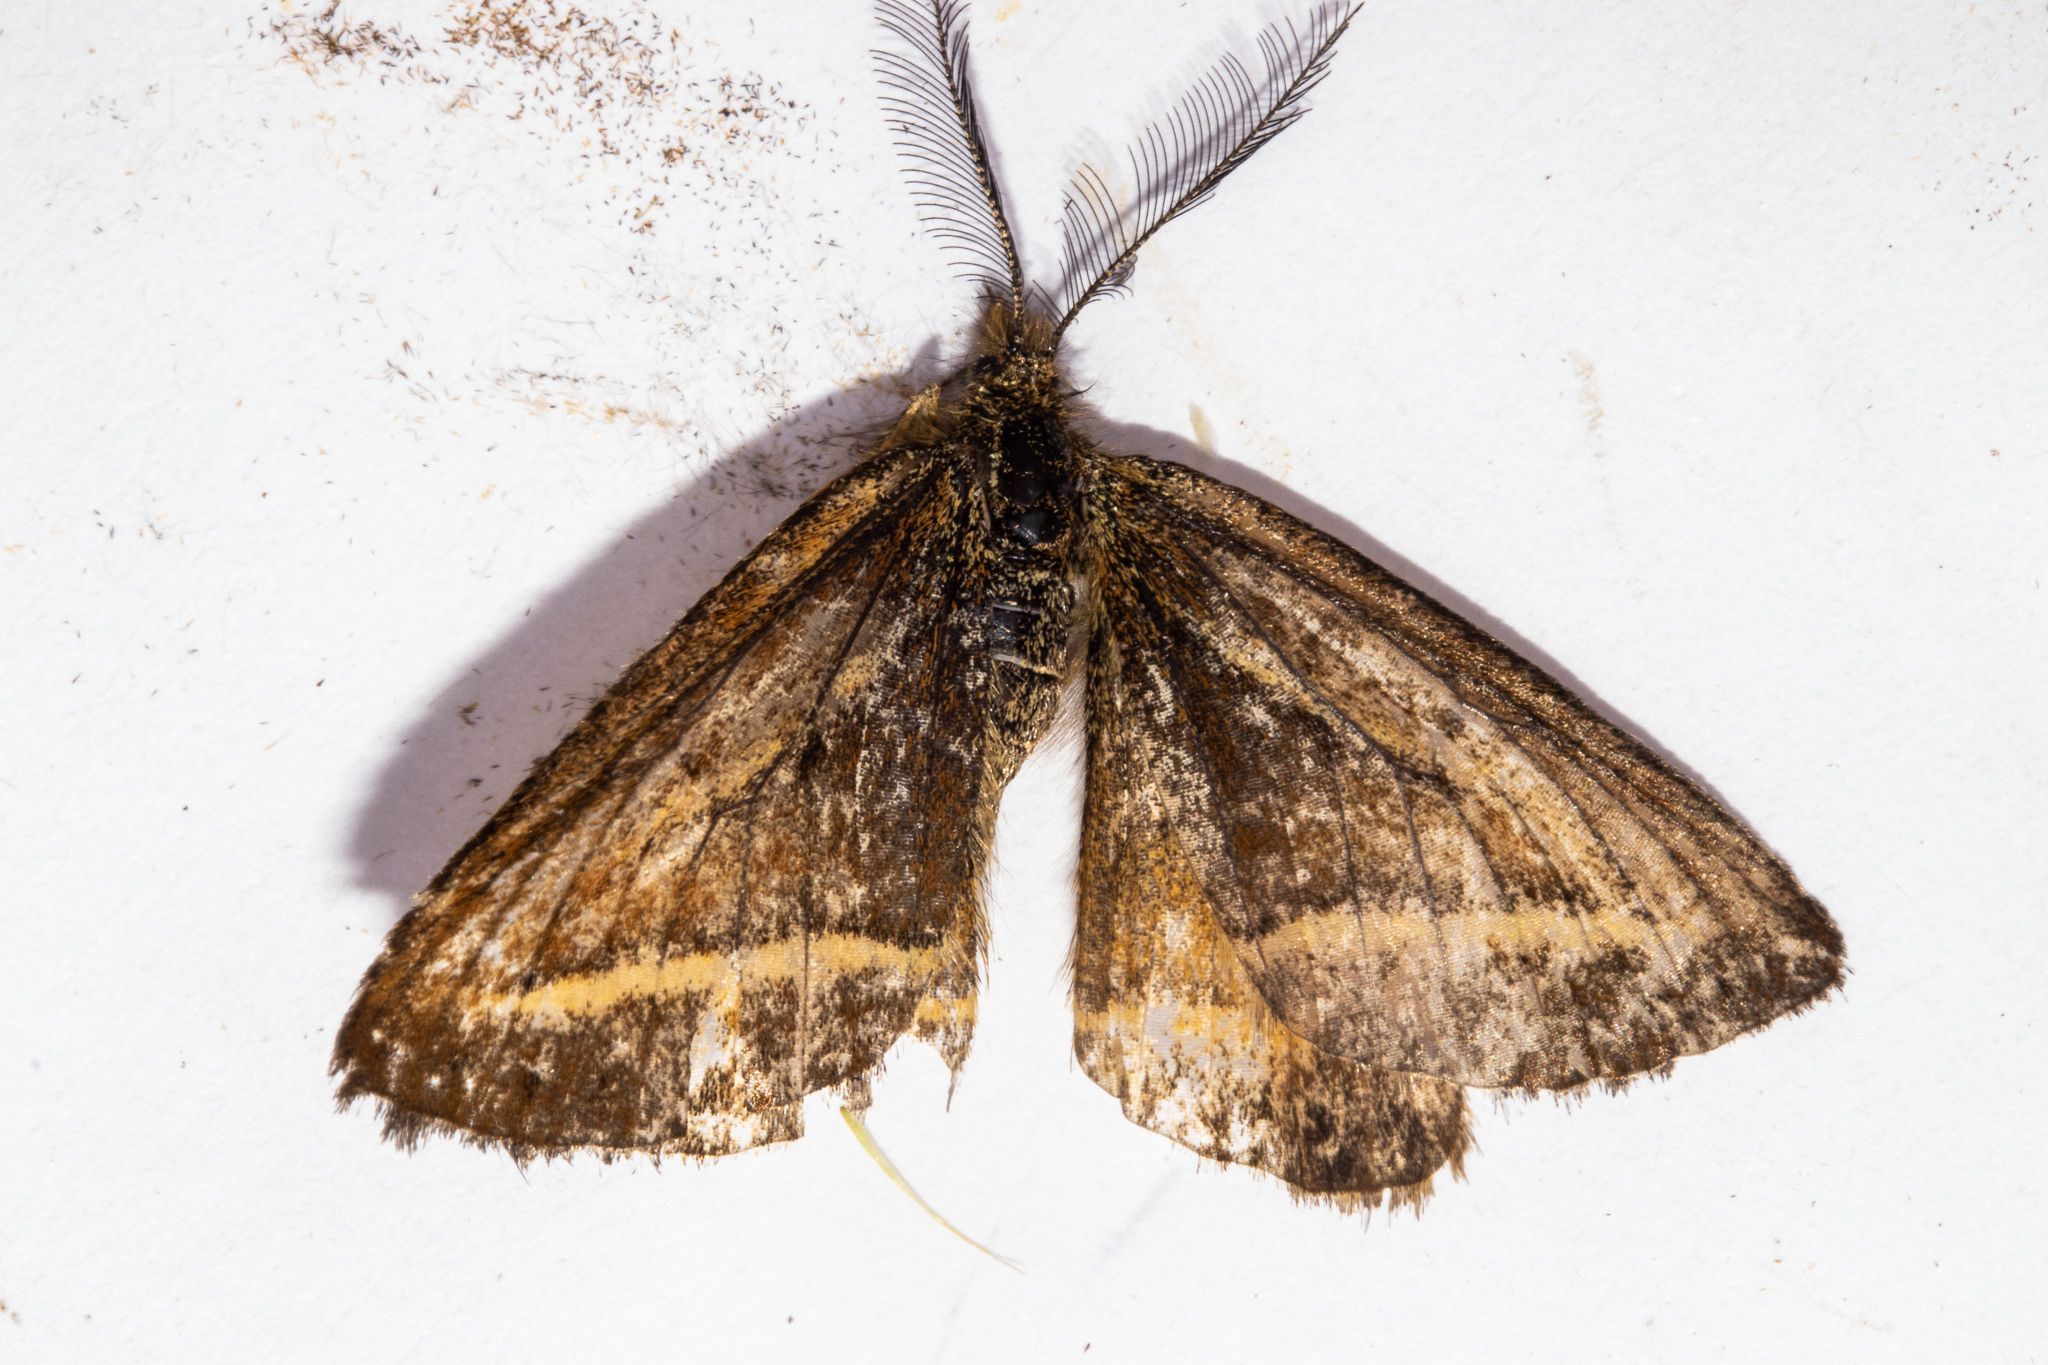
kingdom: Animalia
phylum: Arthropoda
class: Insecta
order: Lepidoptera
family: Geometridae
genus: Aponotoreas
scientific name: Aponotoreas insignis
